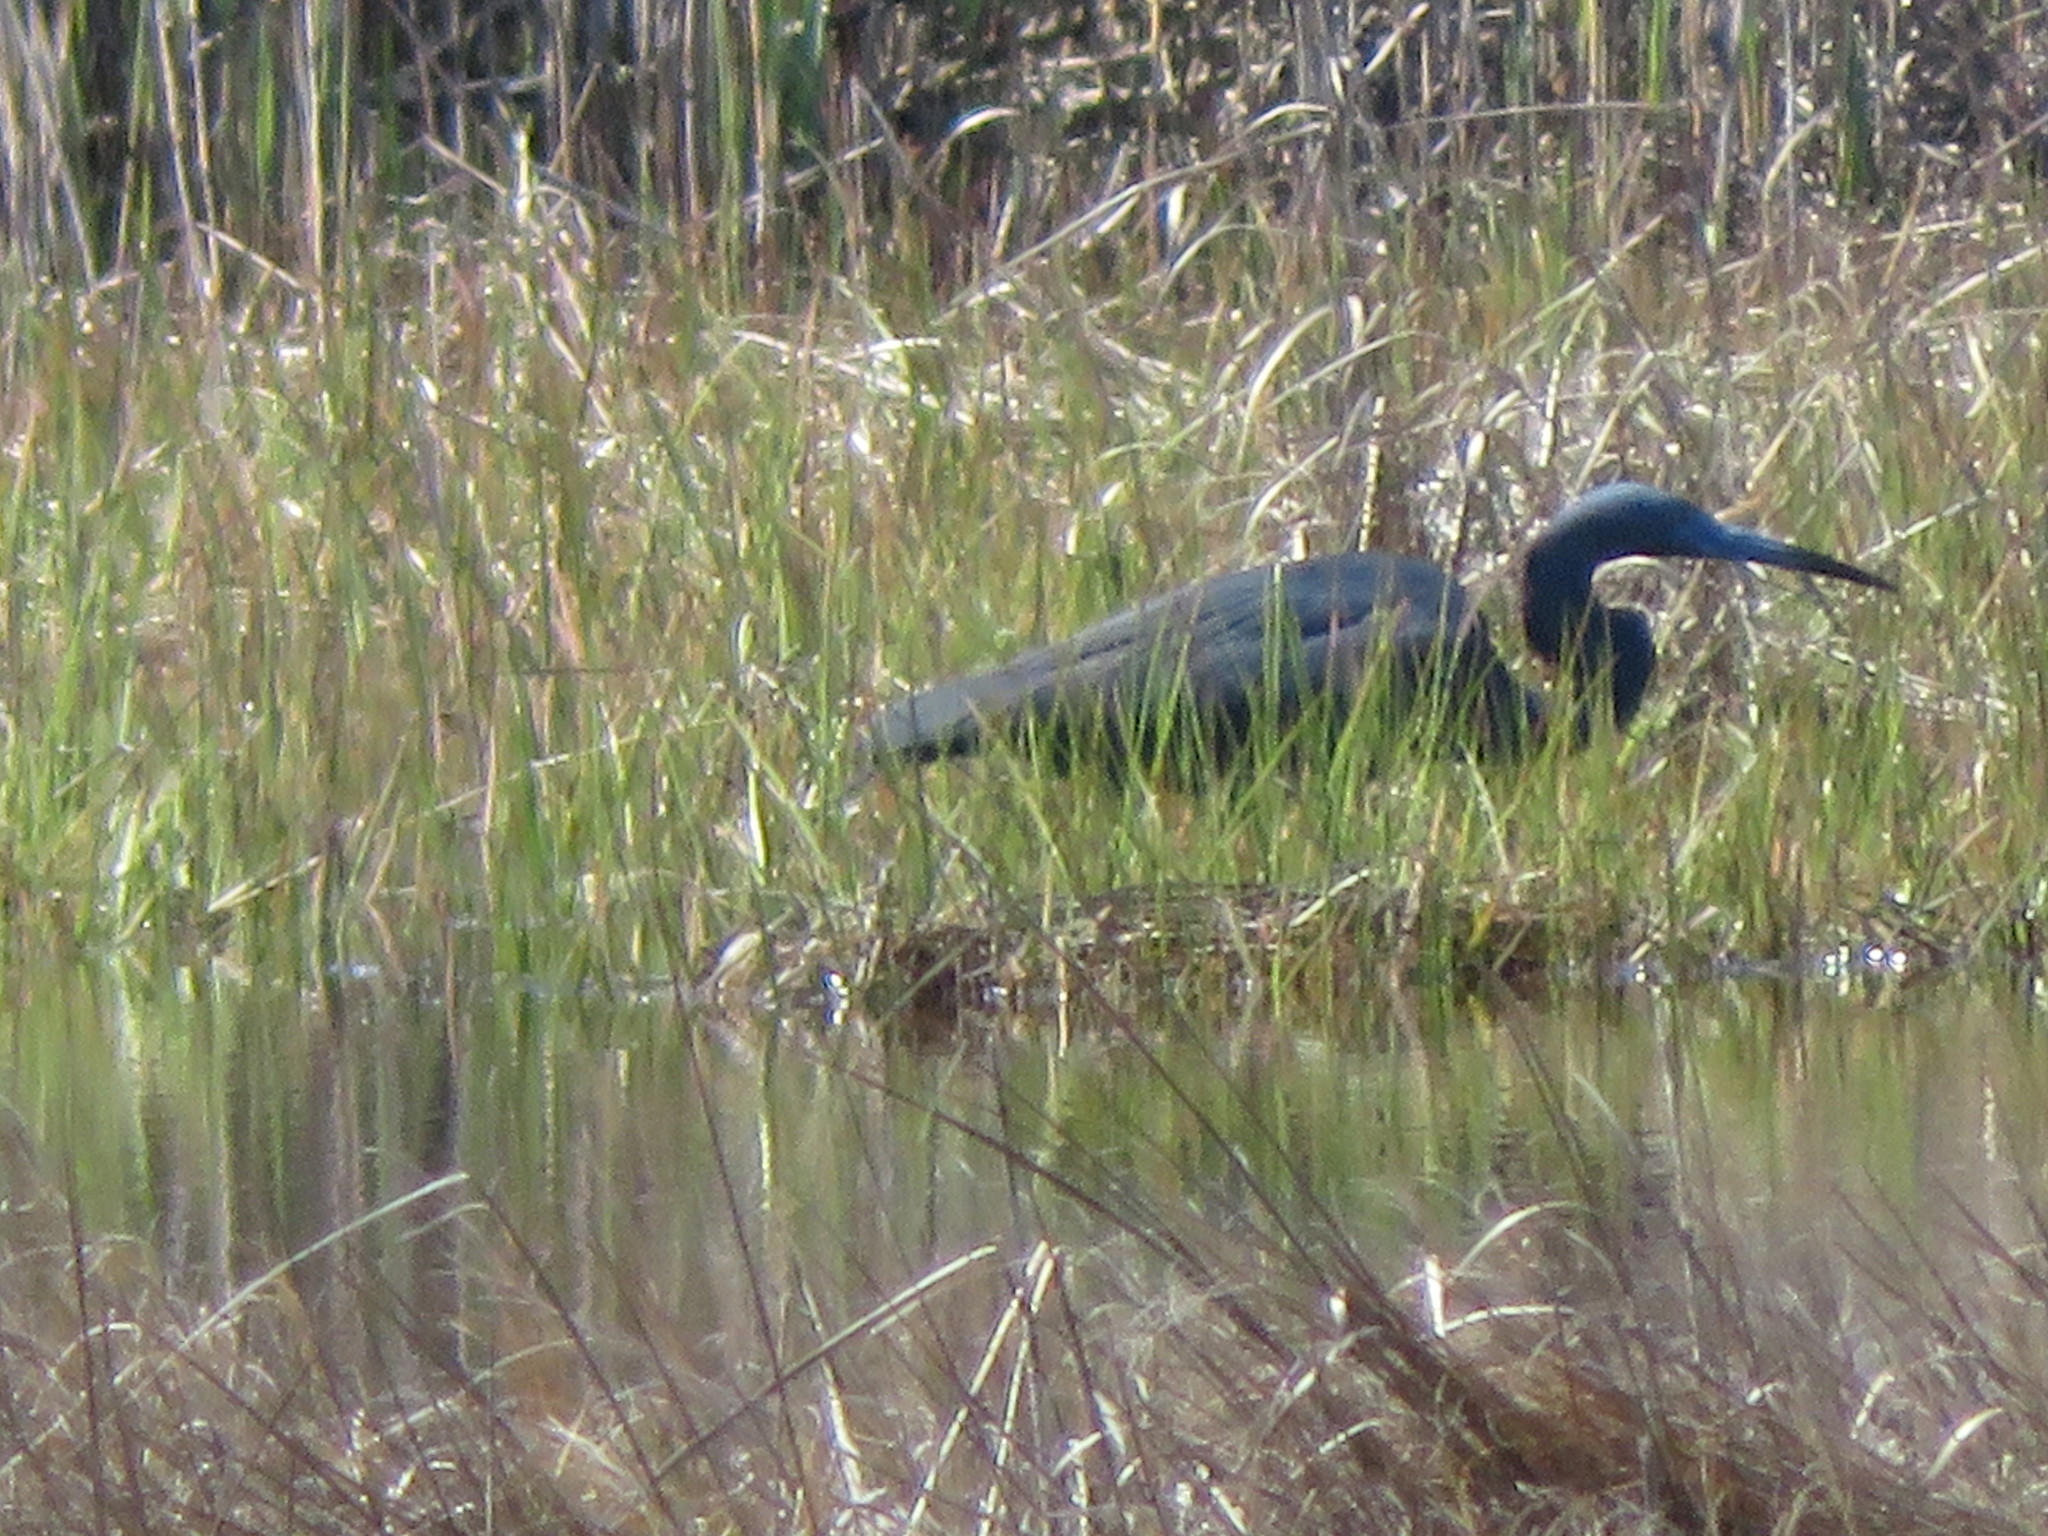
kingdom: Animalia
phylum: Chordata
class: Aves
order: Pelecaniformes
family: Ardeidae
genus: Egretta
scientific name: Egretta
